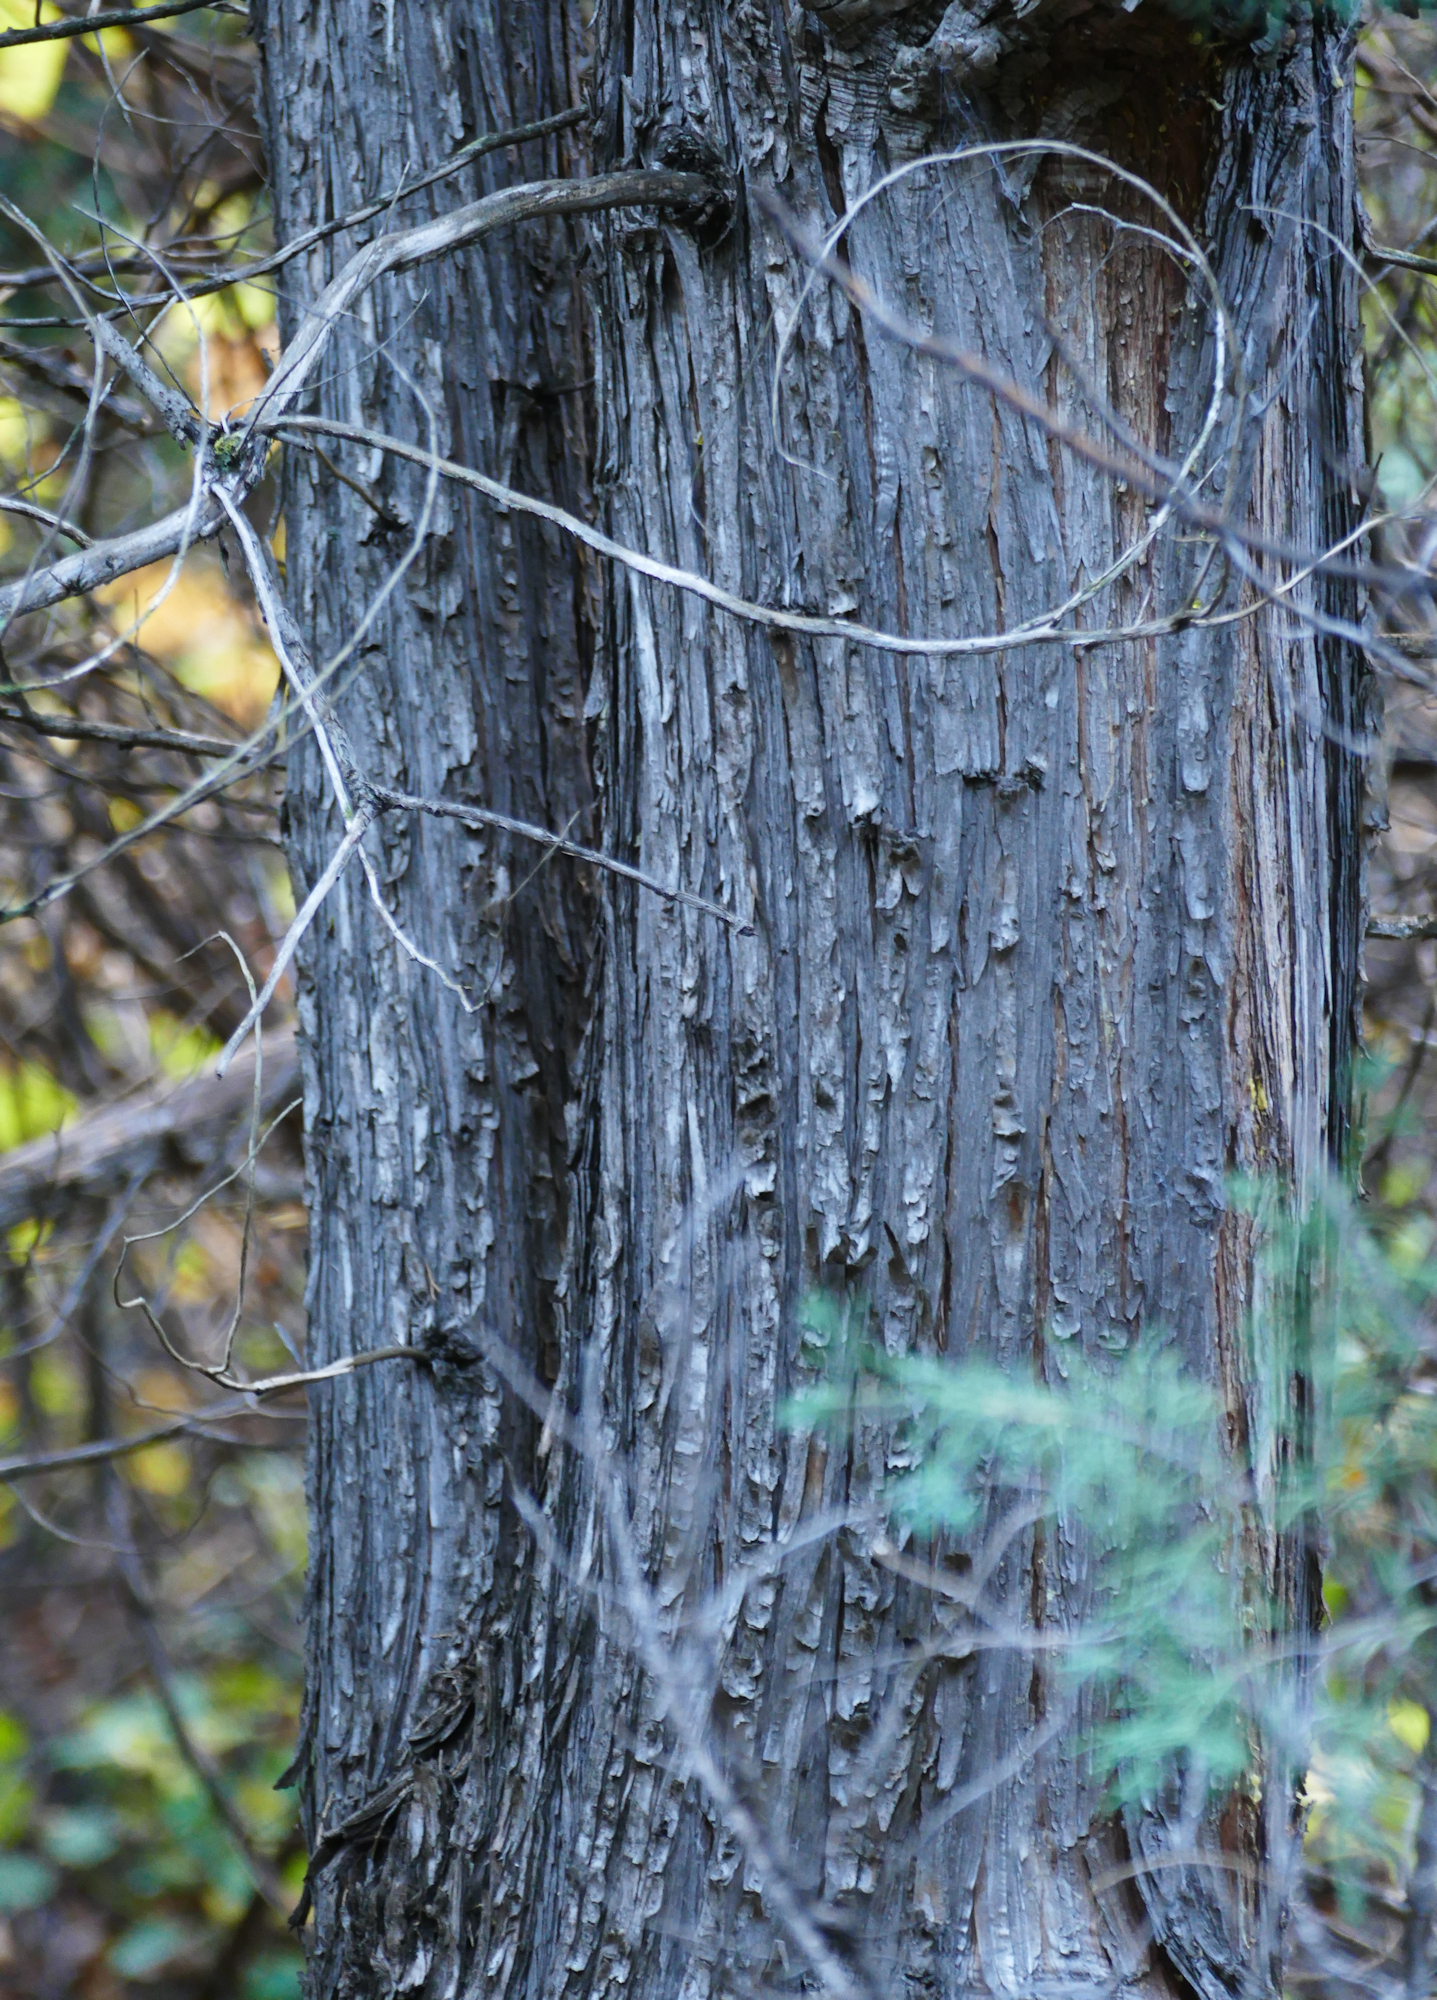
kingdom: Plantae
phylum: Tracheophyta
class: Pinopsida
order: Pinales
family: Cupressaceae
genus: Juniperus
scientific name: Juniperus scopulorum
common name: Rocky mountain juniper
